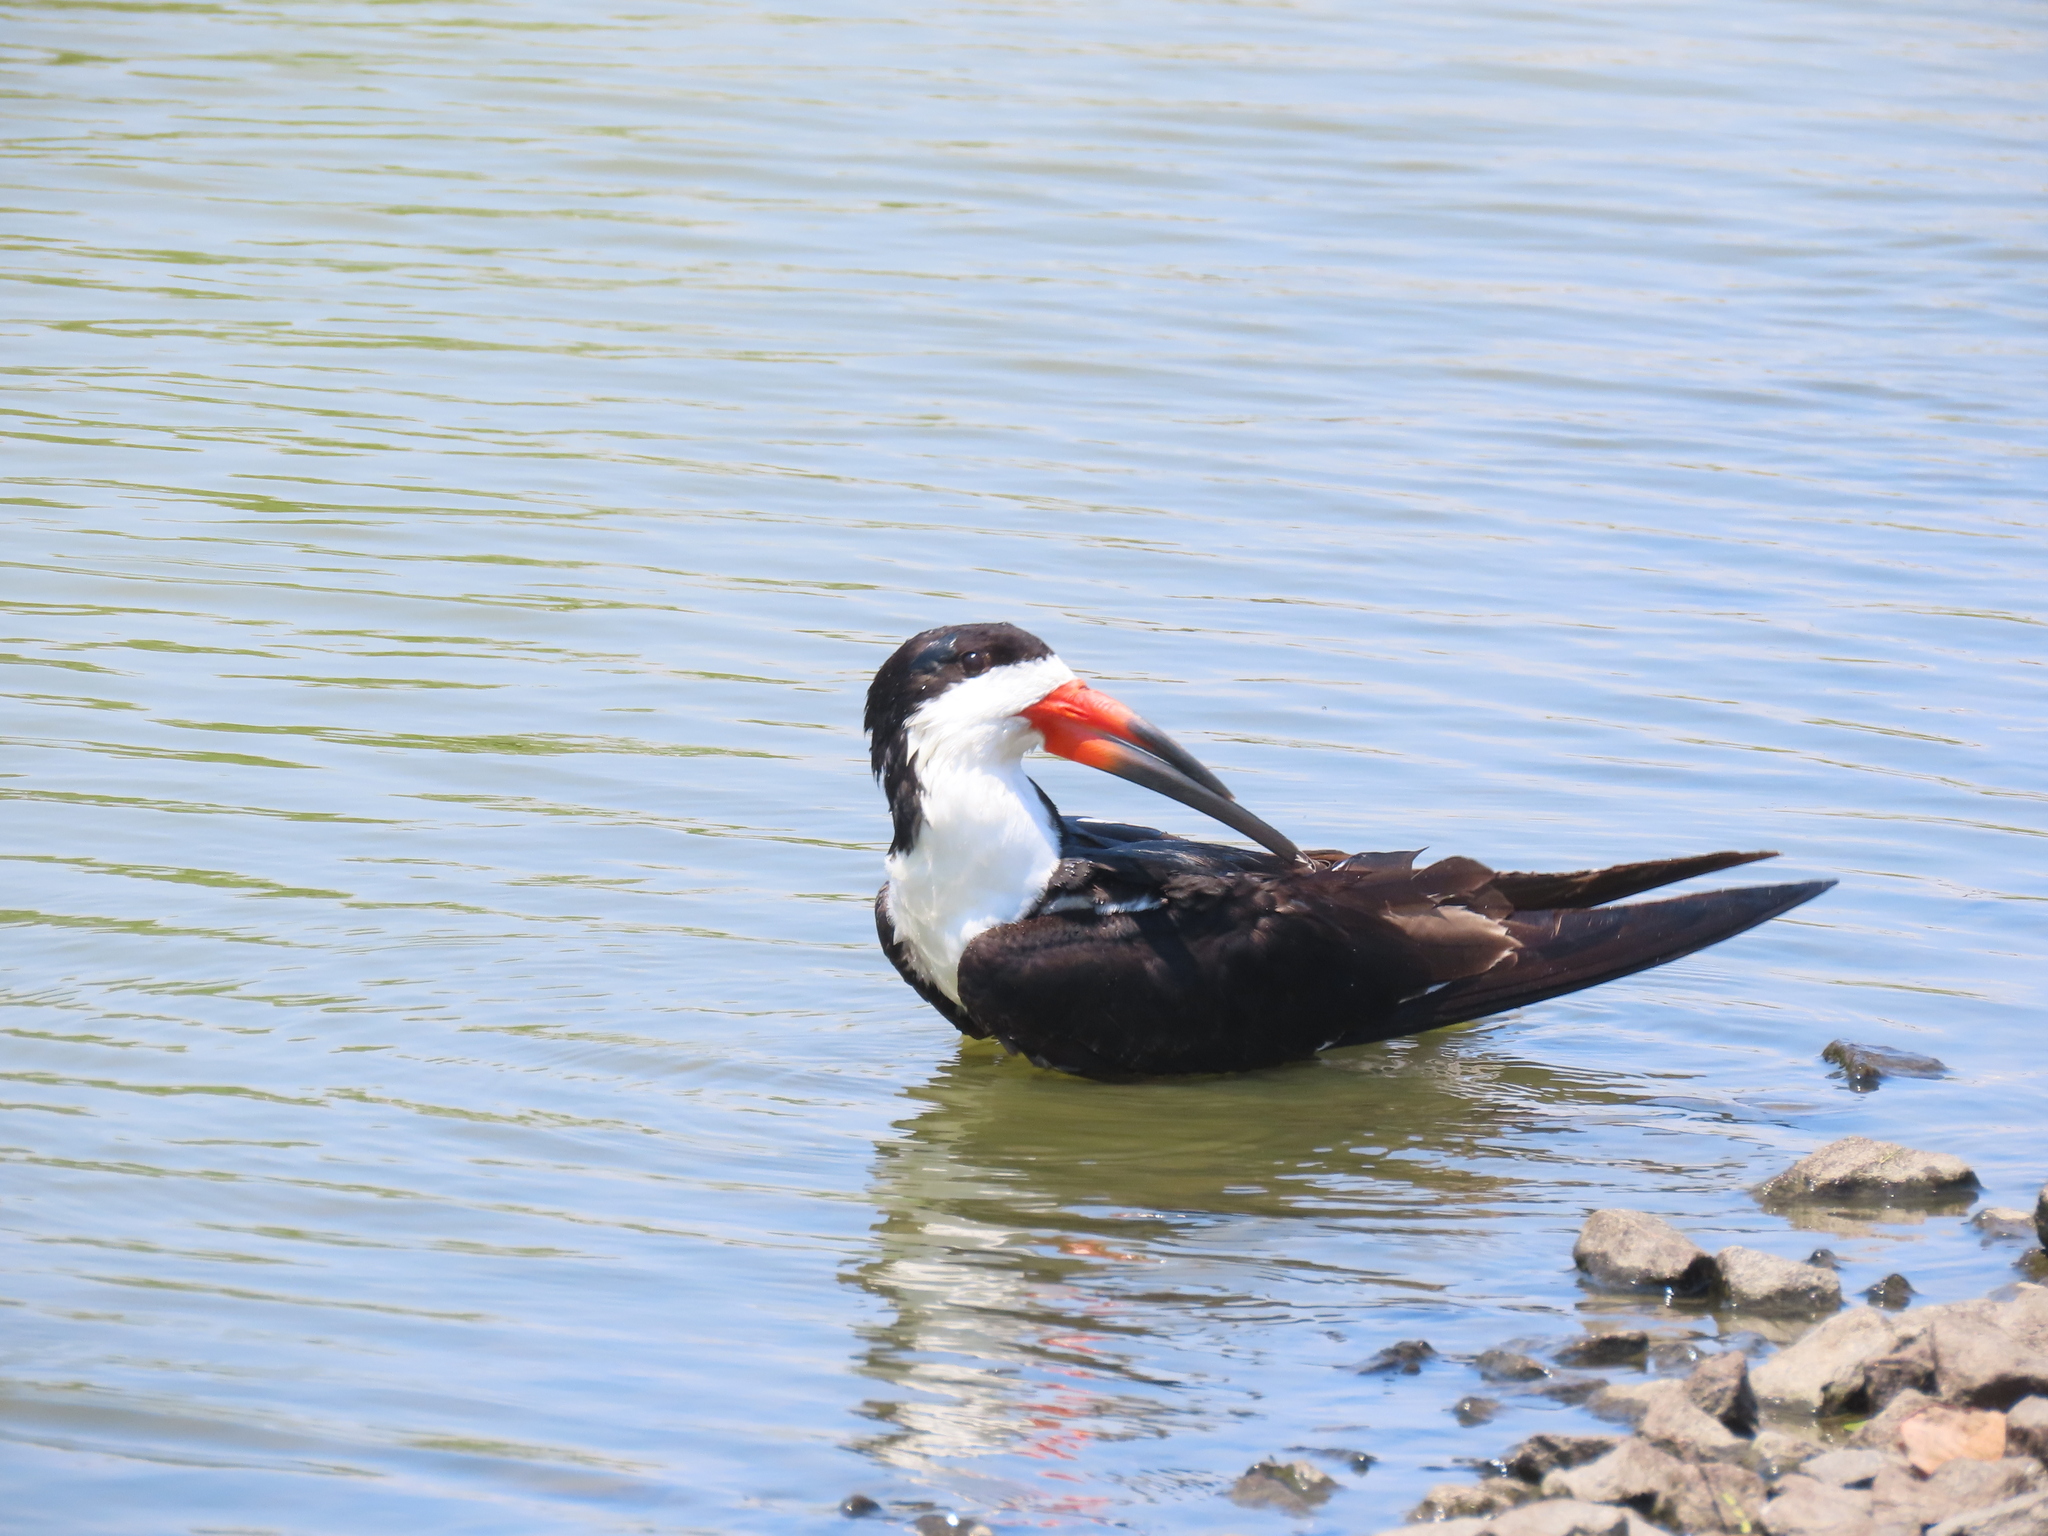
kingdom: Animalia
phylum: Chordata
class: Aves
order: Charadriiformes
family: Laridae
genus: Rynchops
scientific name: Rynchops niger
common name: Black skimmer
